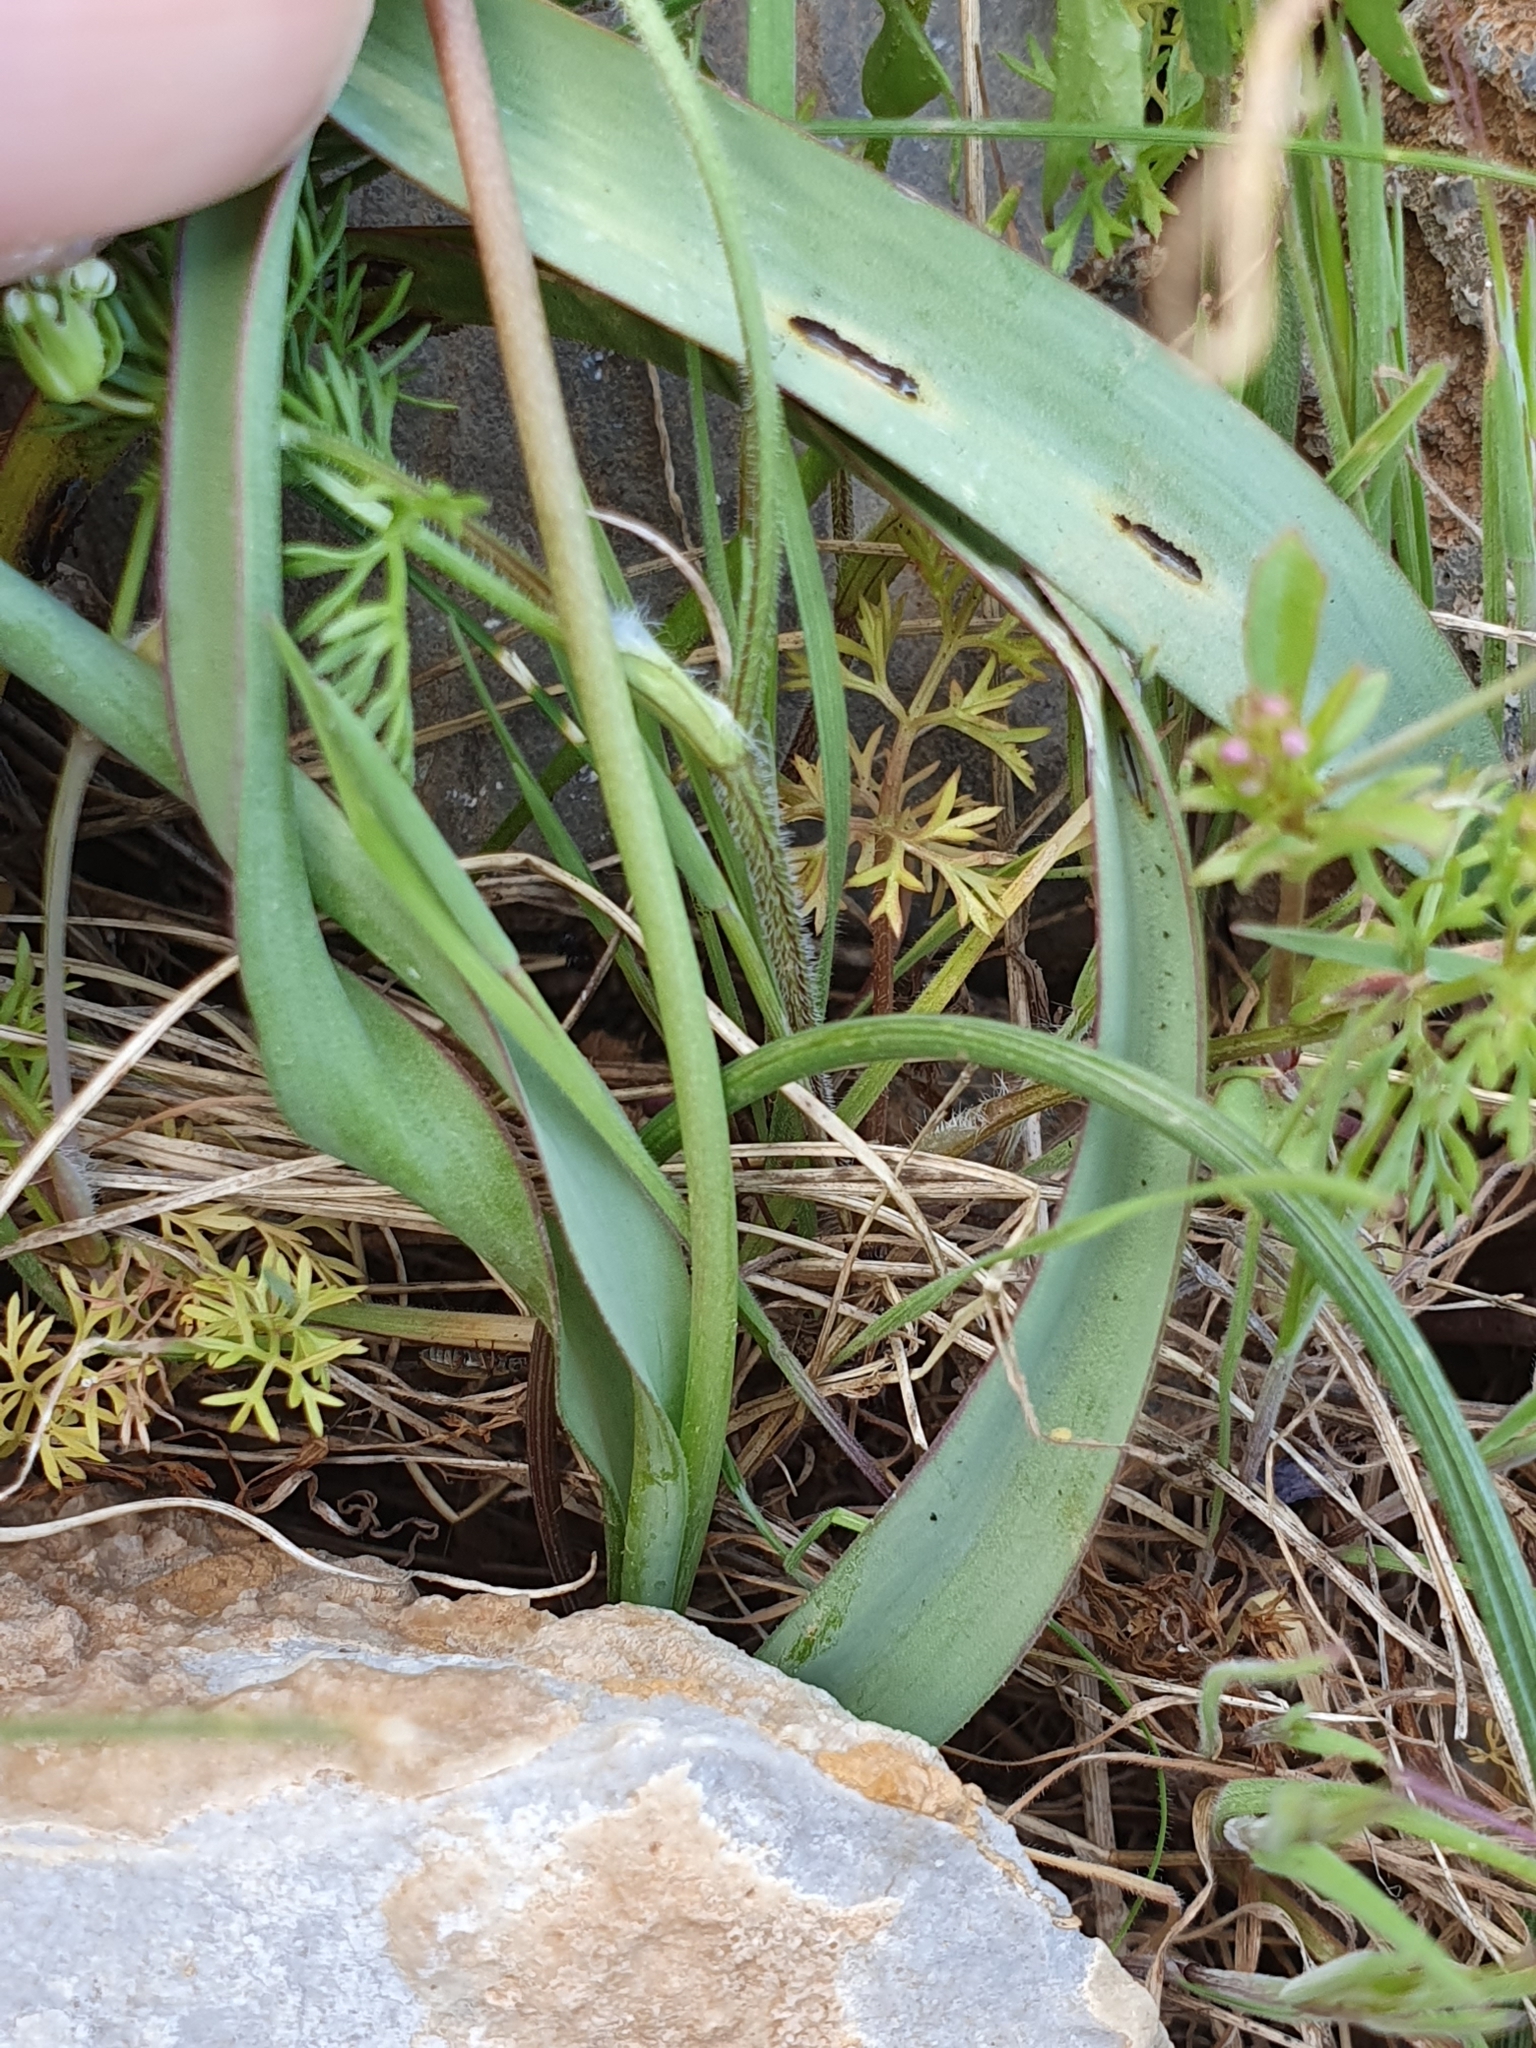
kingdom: Plantae
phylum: Tracheophyta
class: Liliopsida
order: Liliales
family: Liliaceae
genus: Tulipa
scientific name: Tulipa sylvestris
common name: Wild tulip
